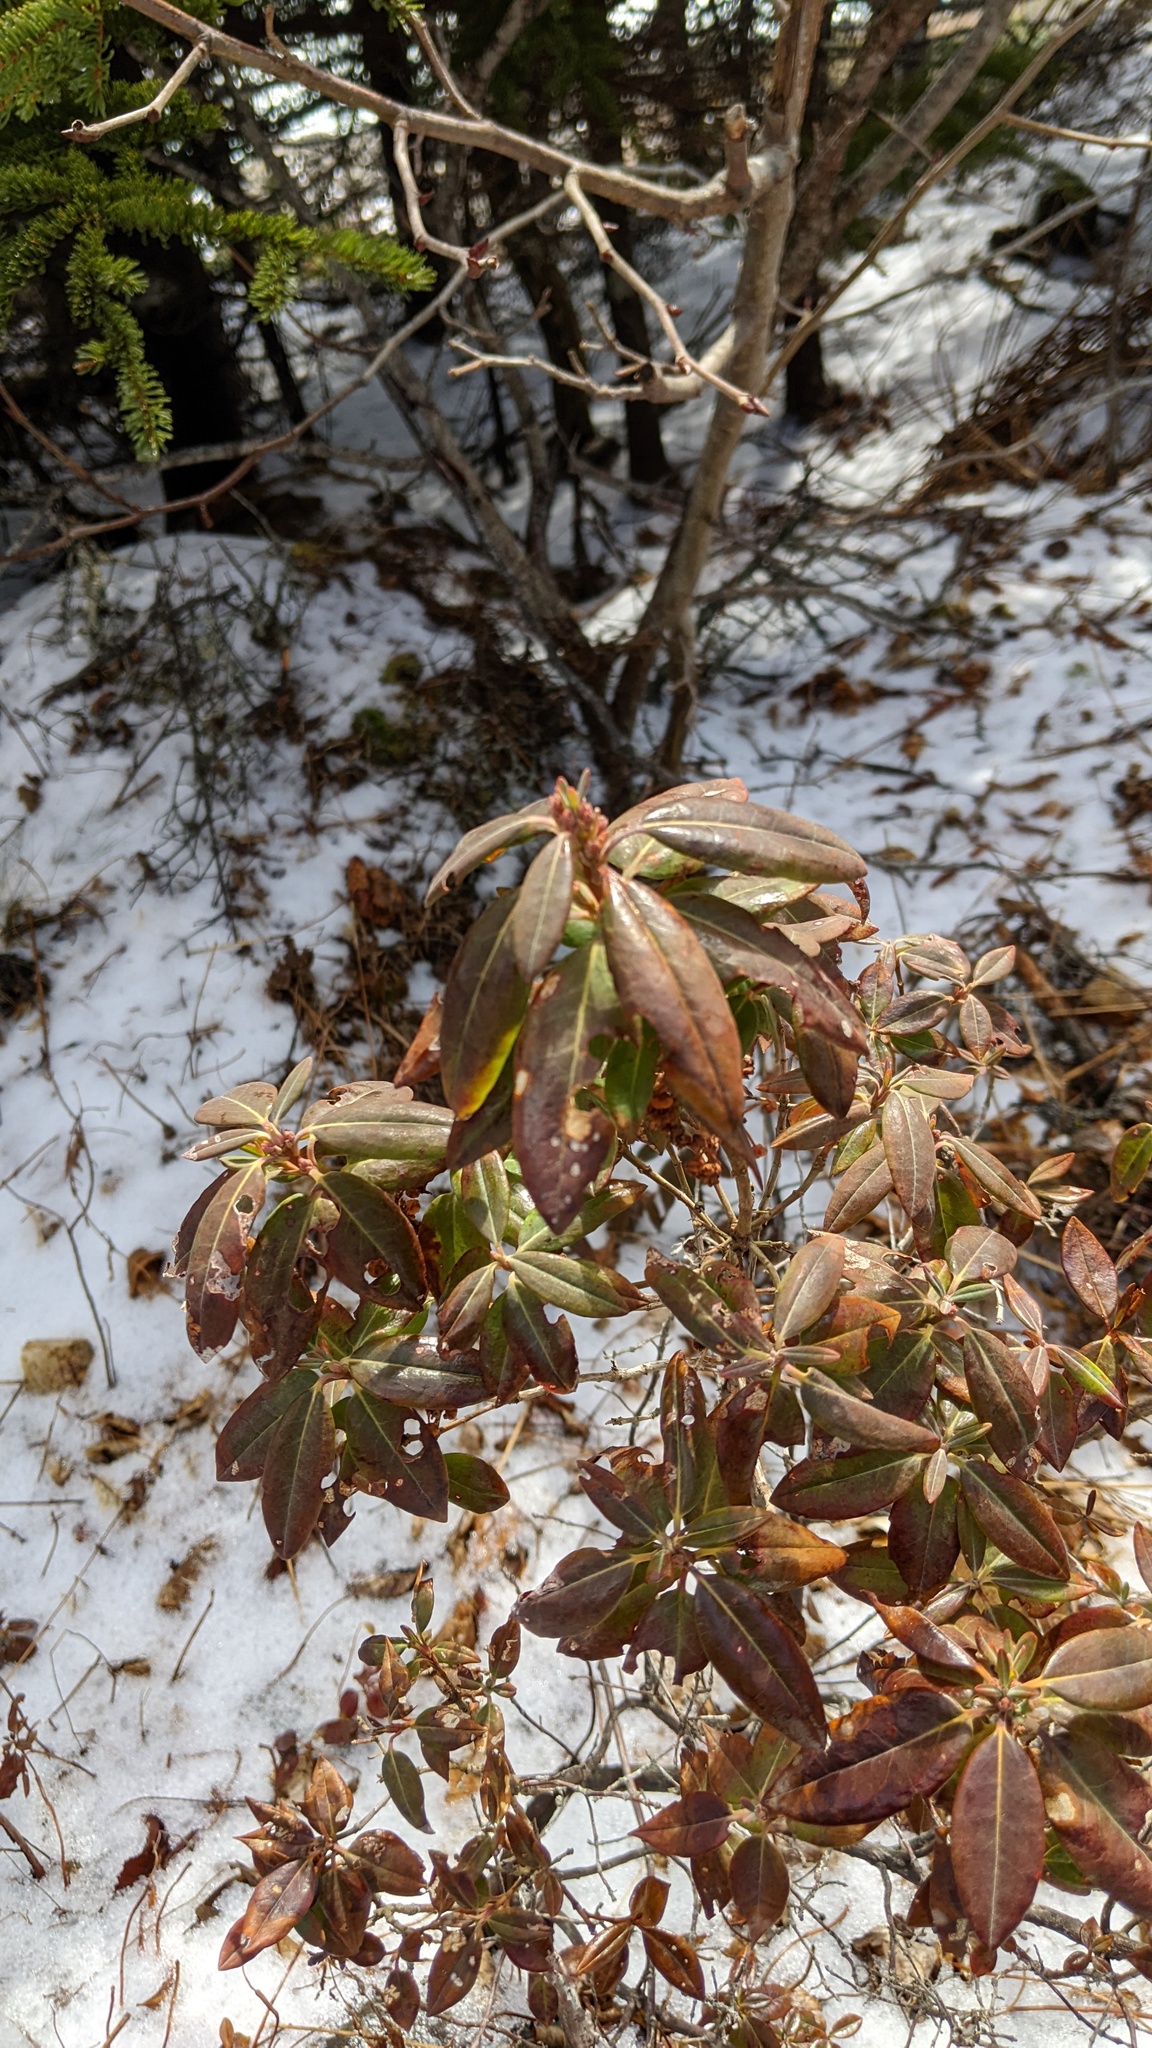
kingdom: Plantae
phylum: Tracheophyta
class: Magnoliopsida
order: Ericales
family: Ericaceae
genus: Kalmia
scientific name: Kalmia angustifolia
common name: Sheep-laurel
